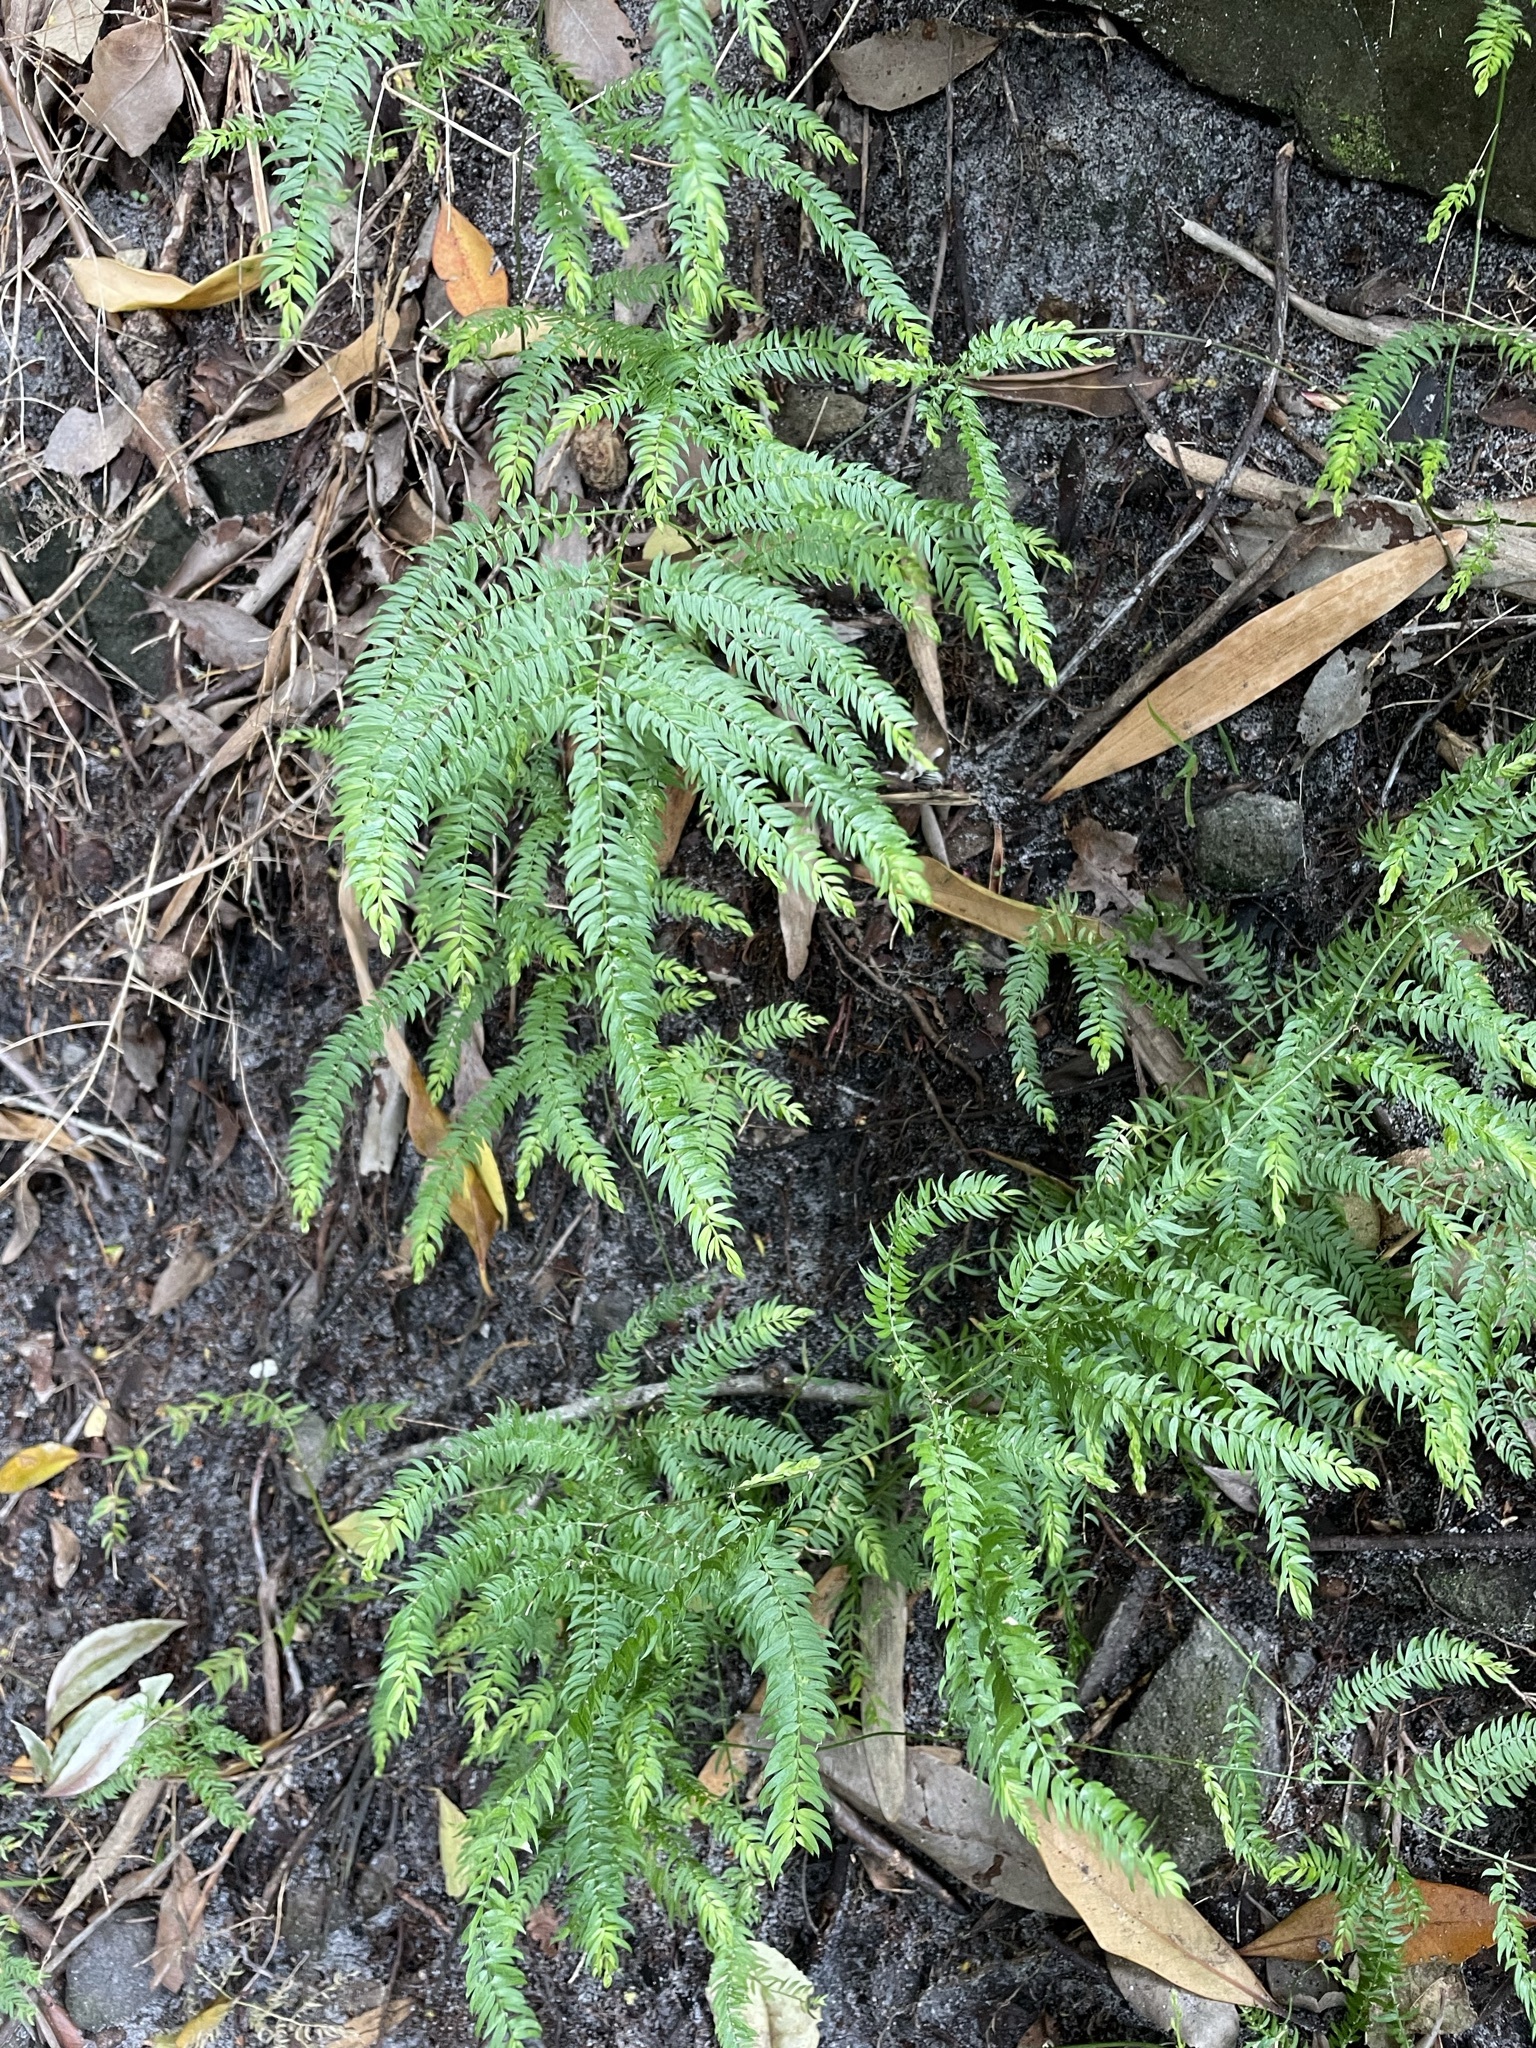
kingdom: Plantae
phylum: Tracheophyta
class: Liliopsida
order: Asparagales
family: Asparagaceae
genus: Asparagus
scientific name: Asparagus scandens
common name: Asparagus-fern
